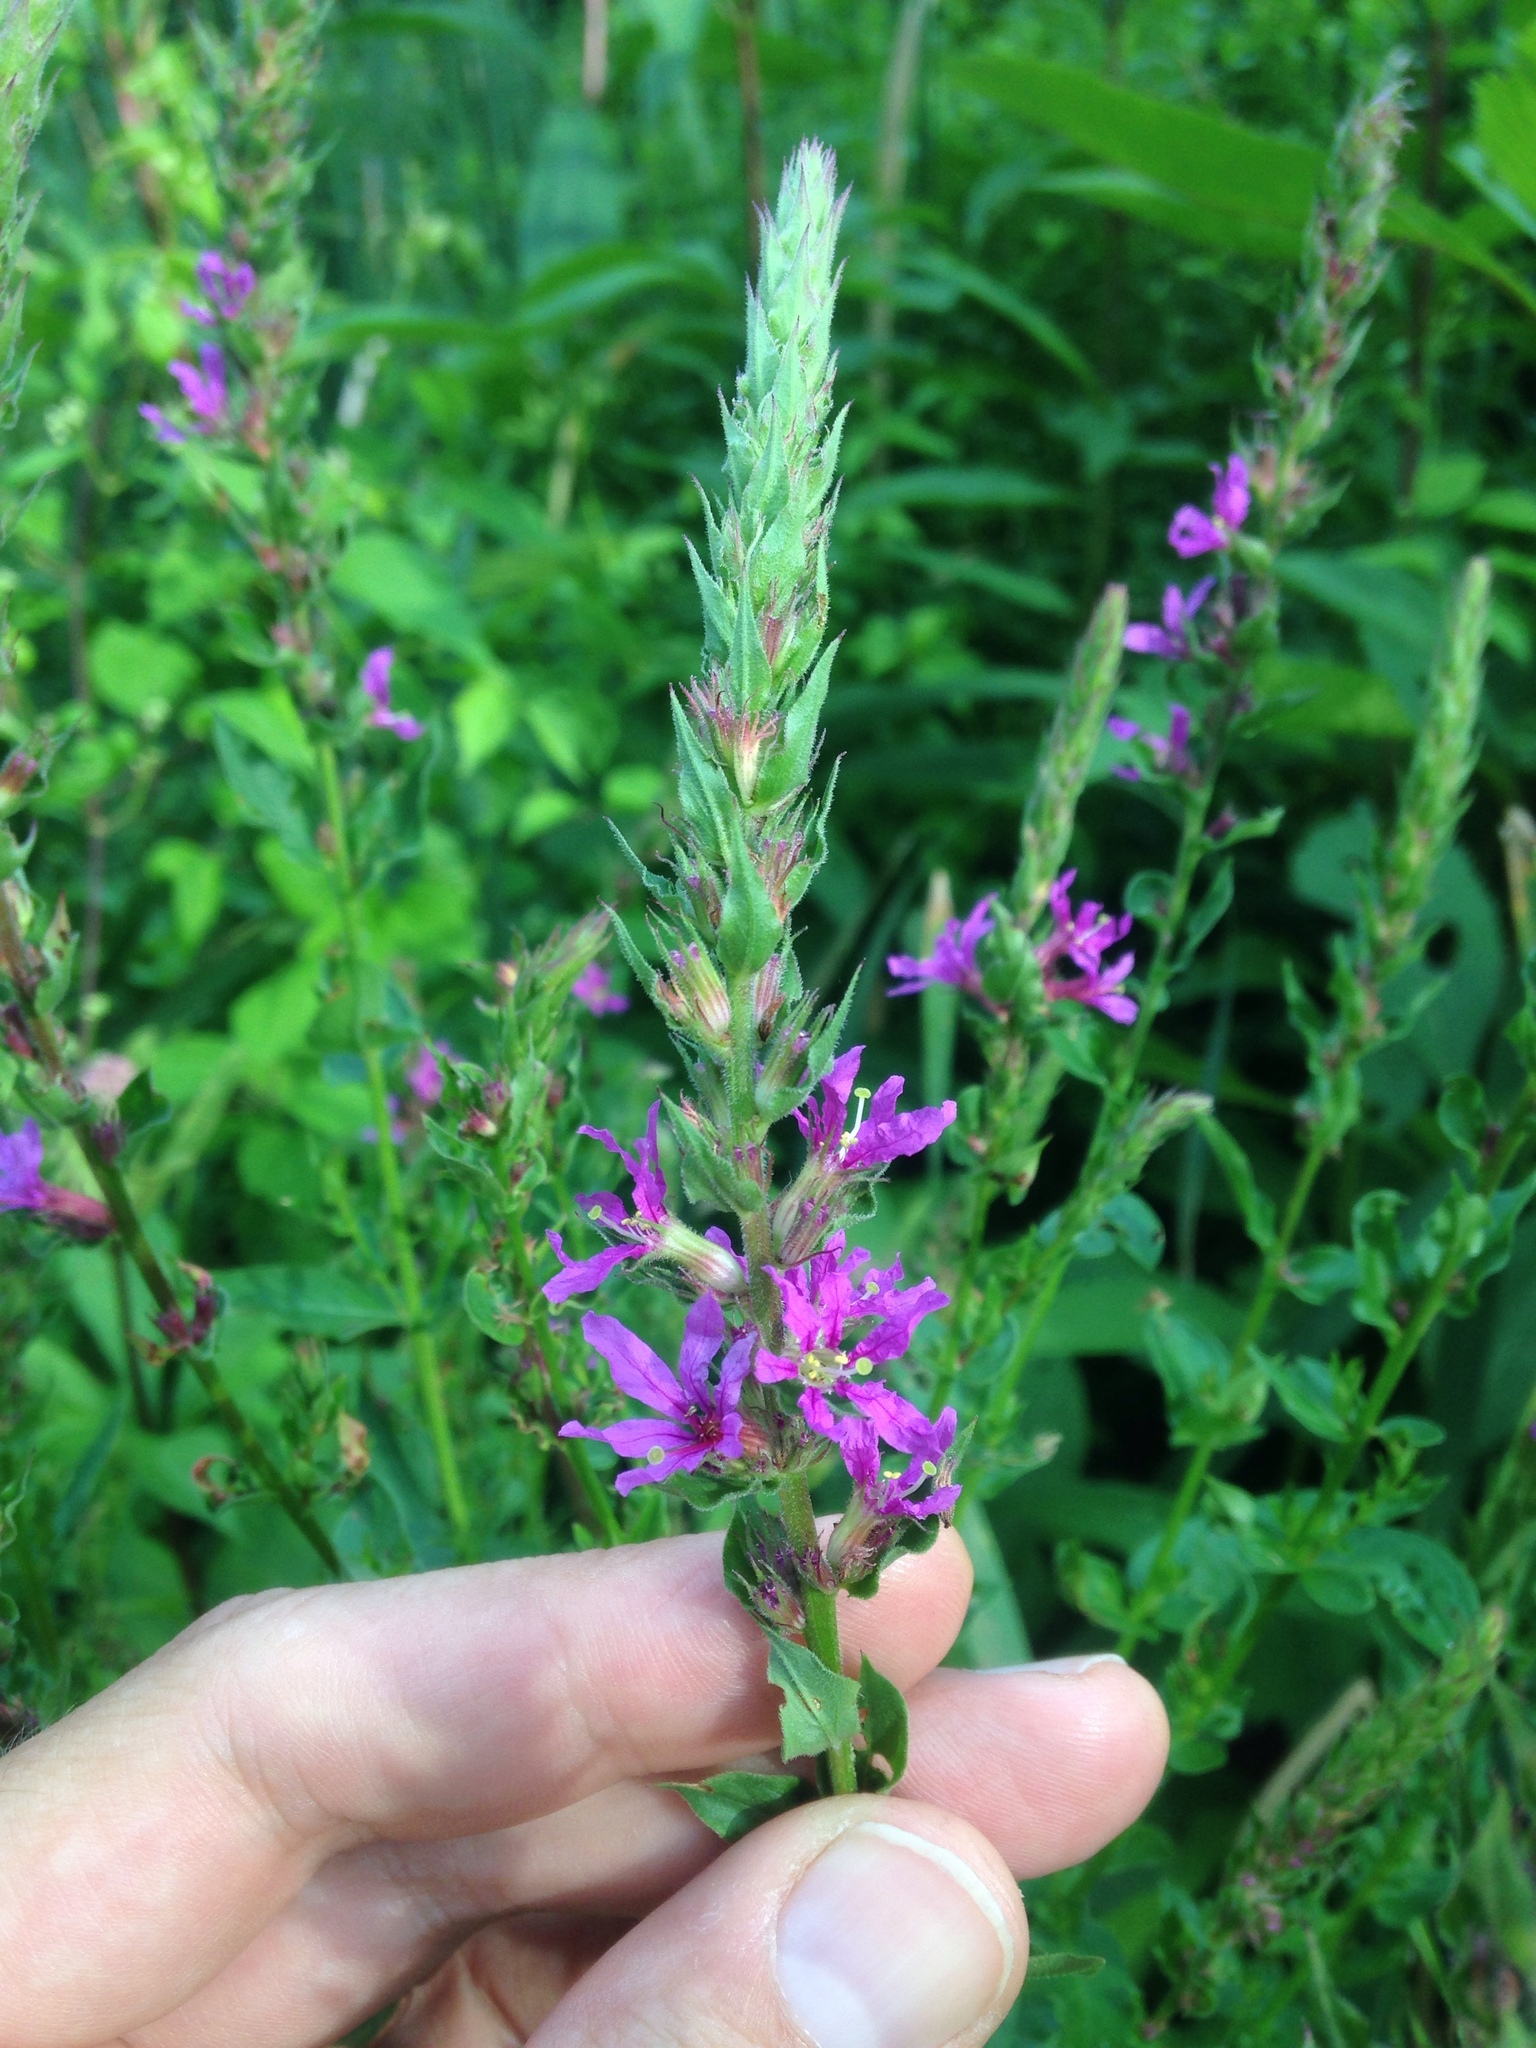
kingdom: Plantae
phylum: Tracheophyta
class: Magnoliopsida
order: Myrtales
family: Lythraceae
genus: Lythrum
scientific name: Lythrum salicaria
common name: Purple loosestrife
